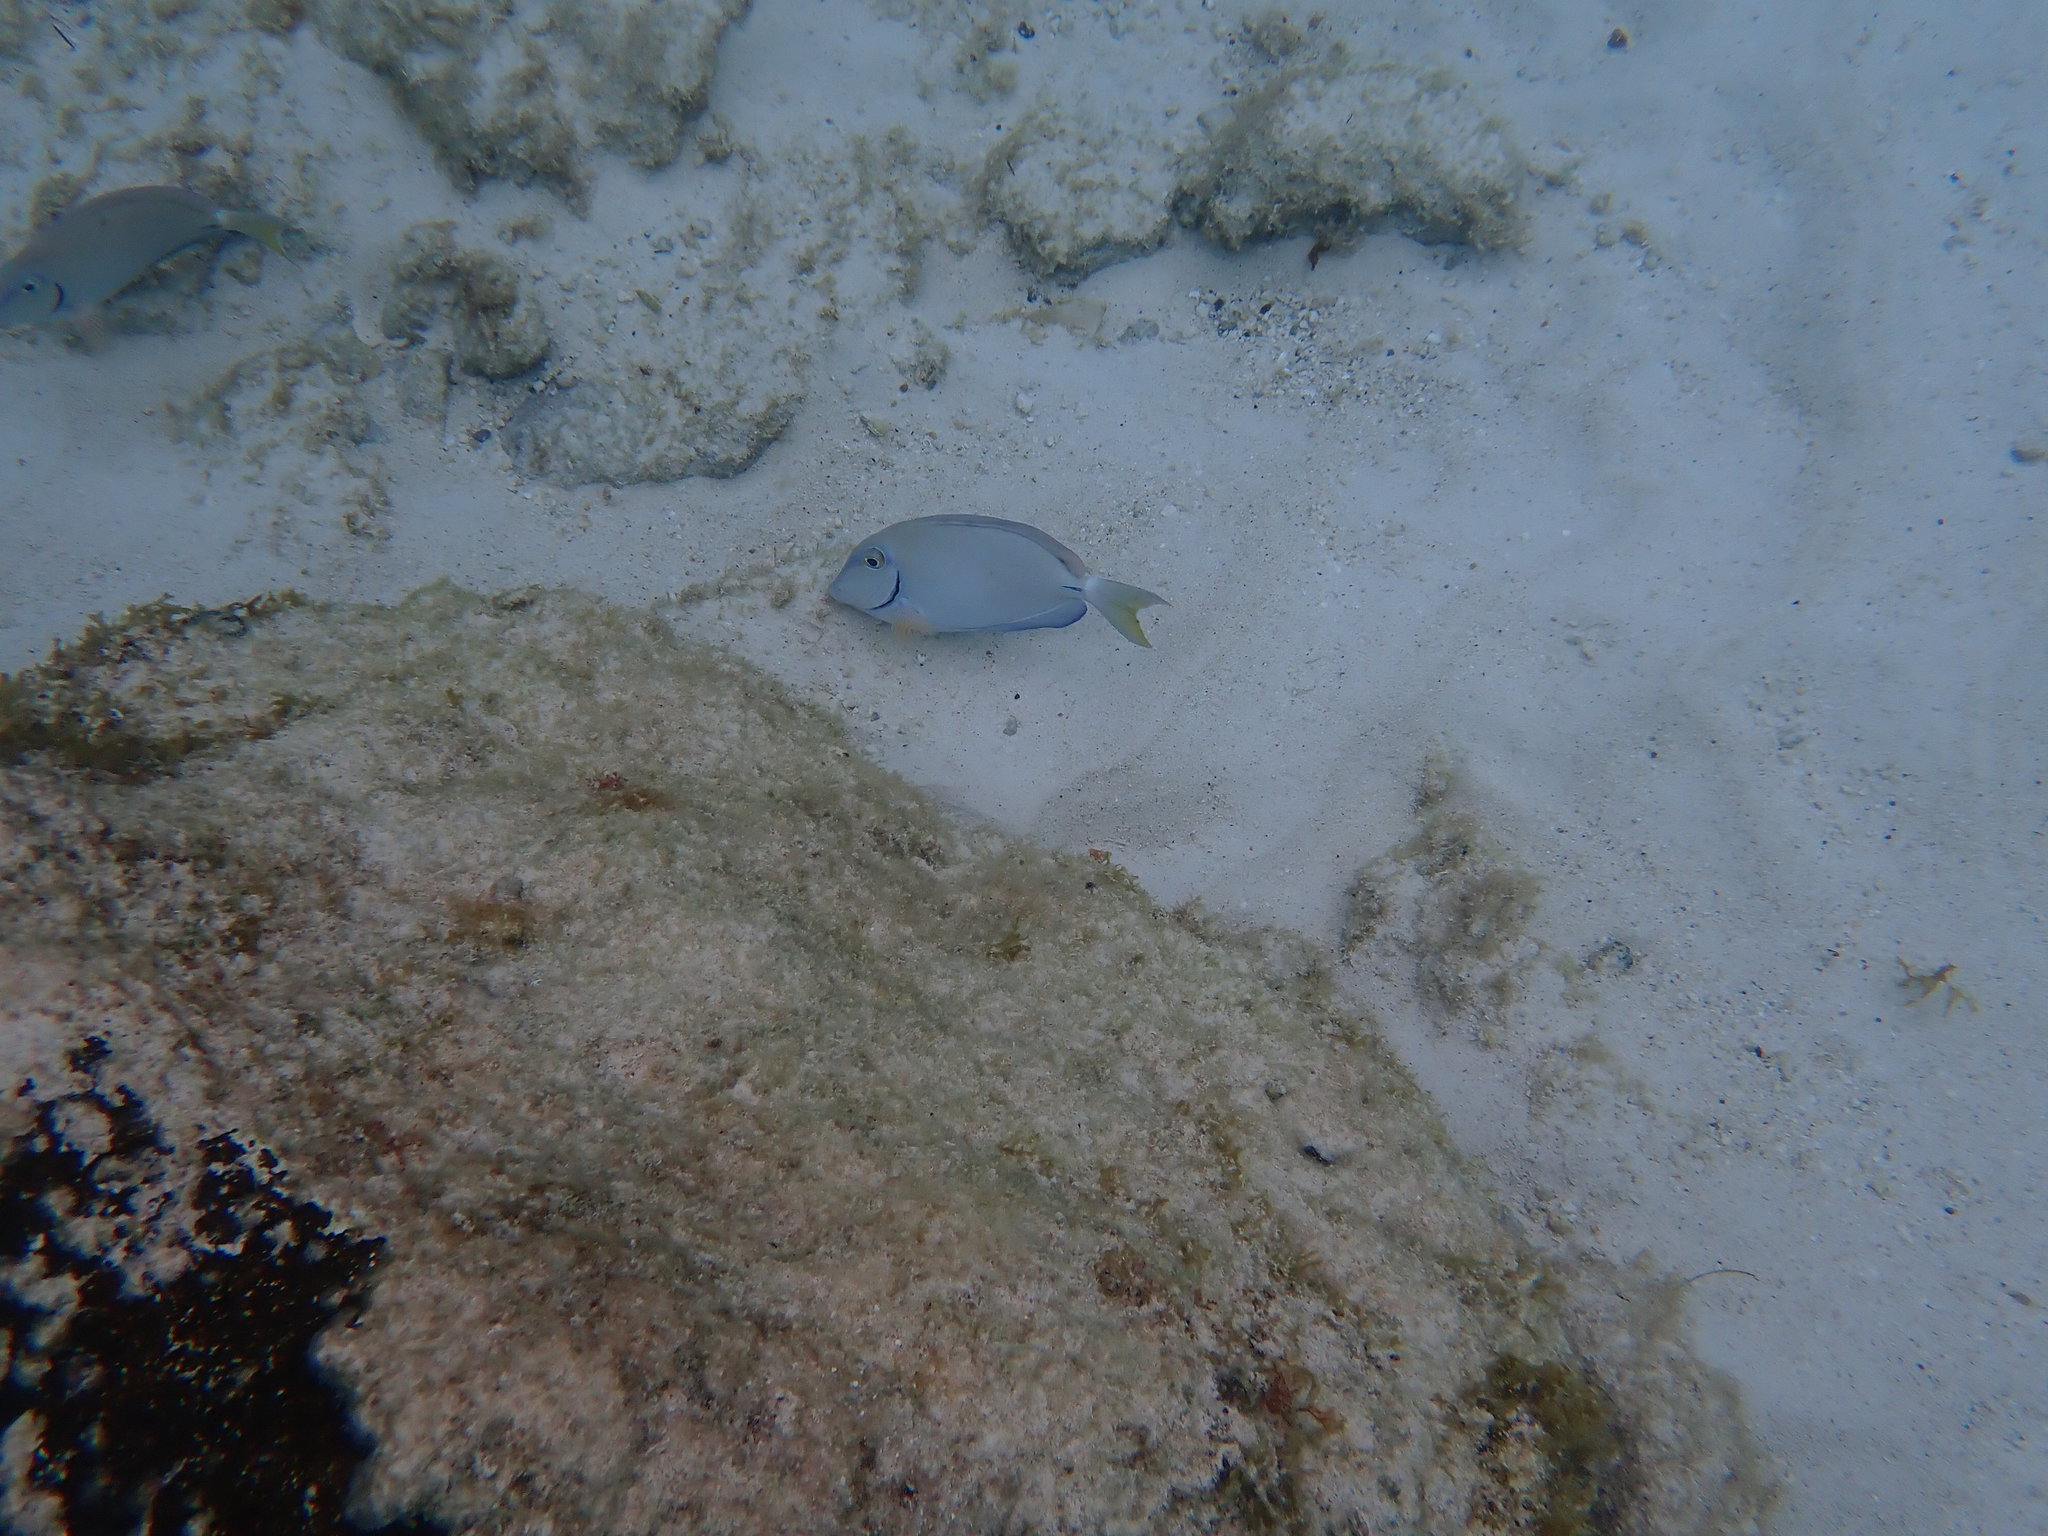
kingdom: Animalia
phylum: Chordata
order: Perciformes
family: Acanthuridae
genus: Acanthurus
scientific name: Acanthurus bahianus
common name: Ocean surgeon
